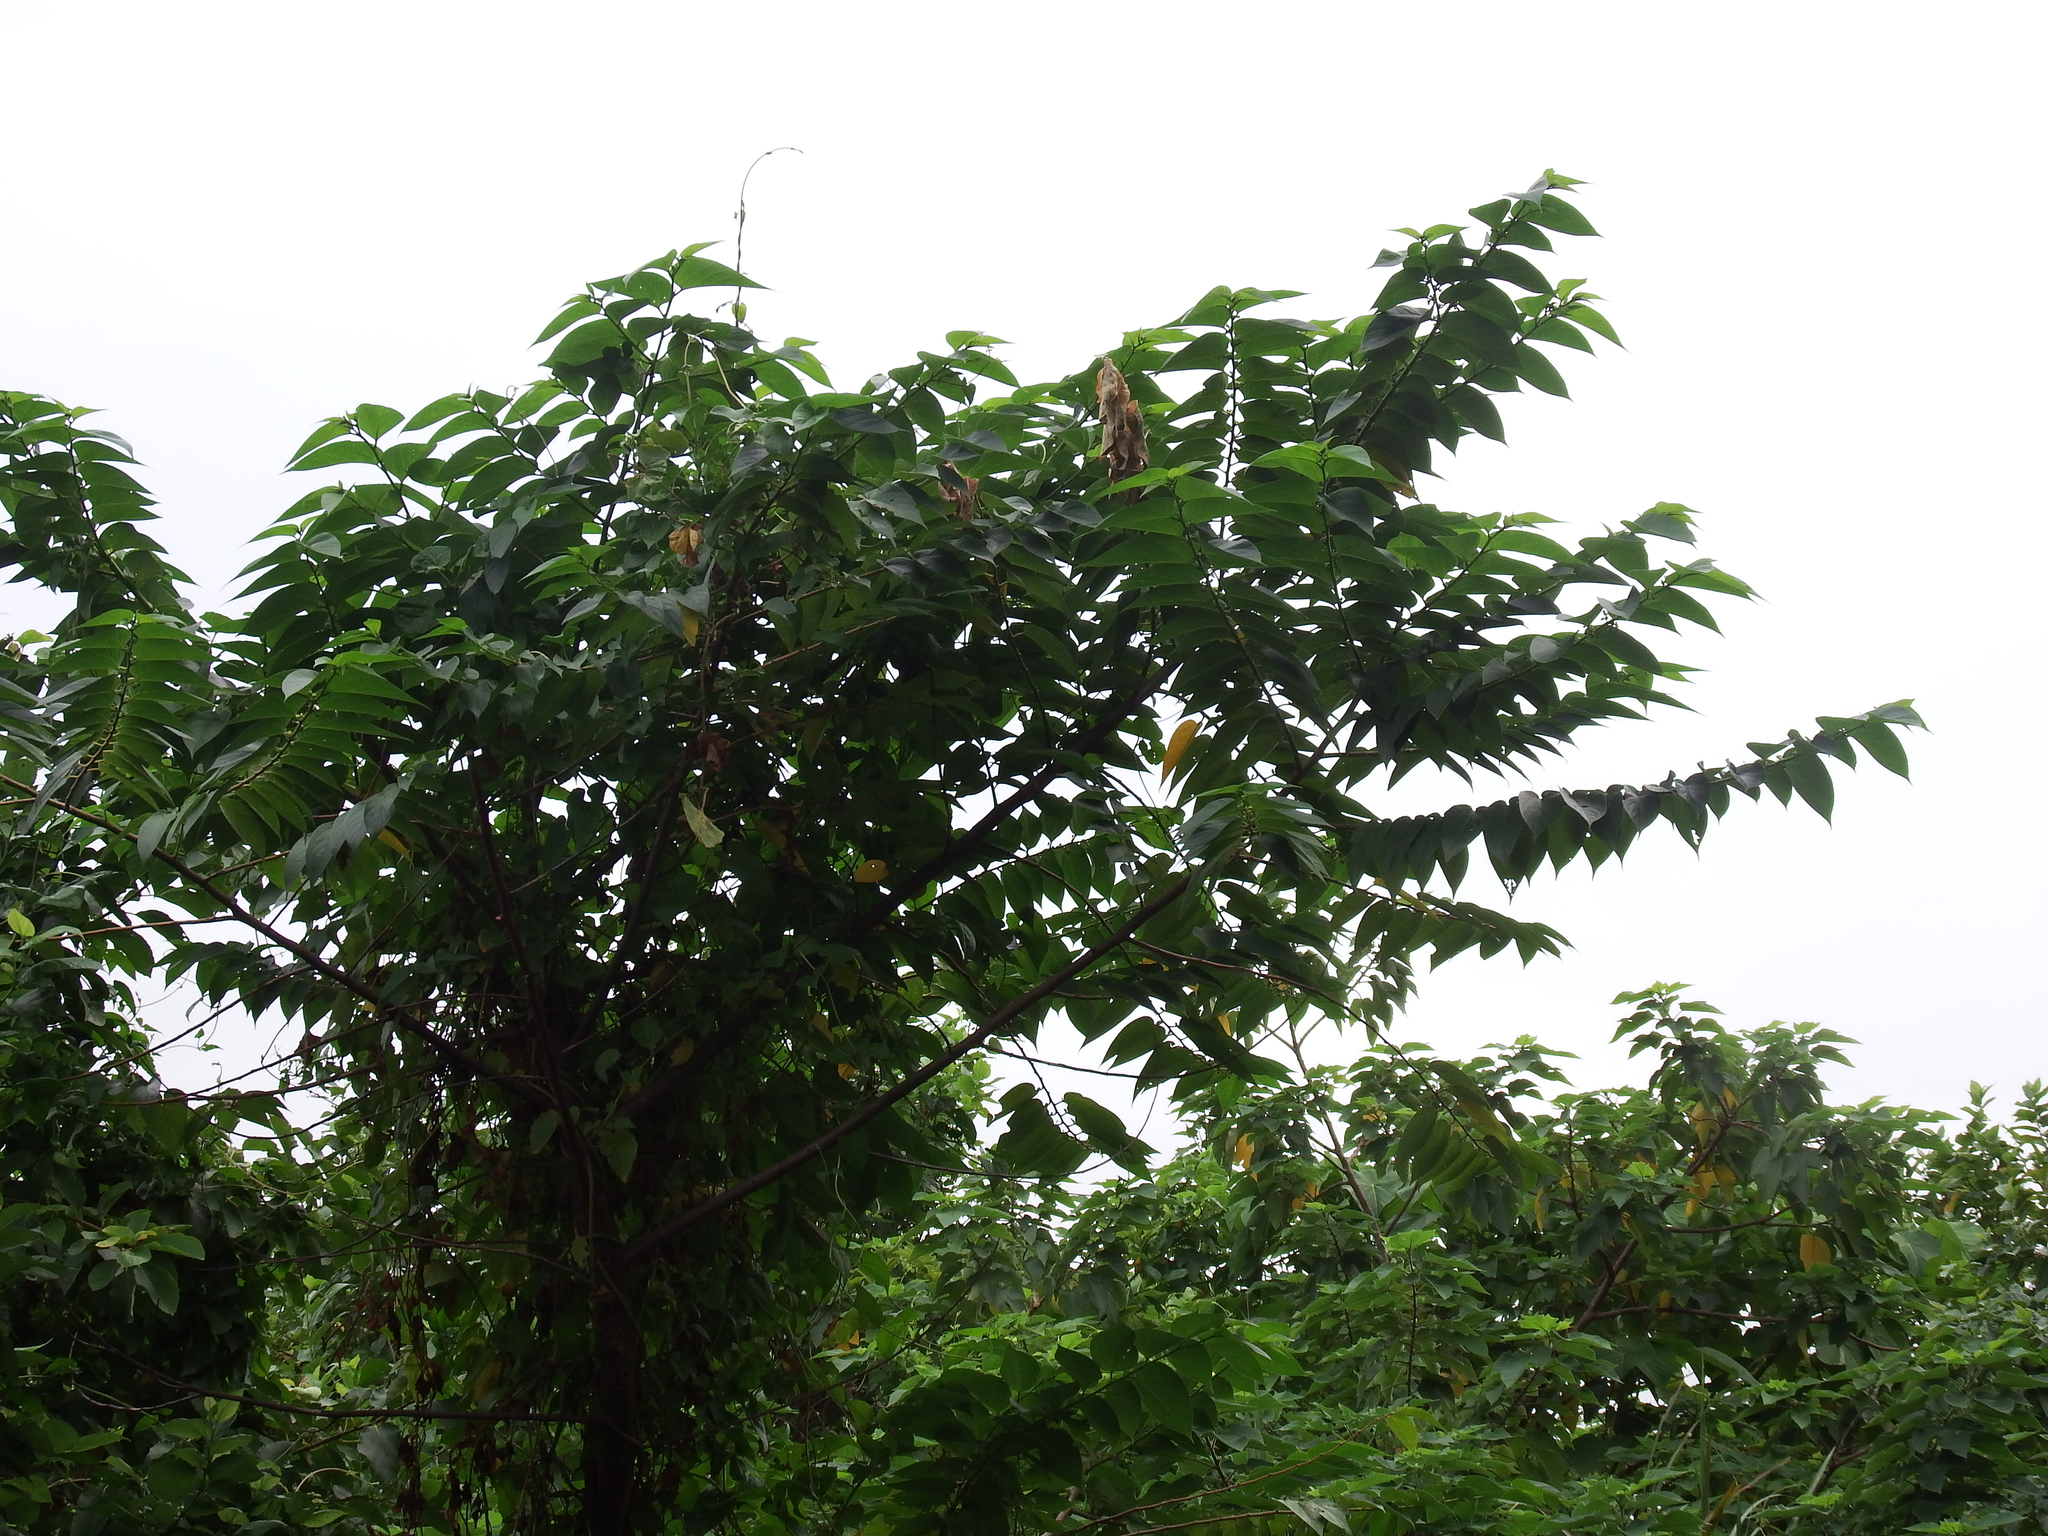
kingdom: Plantae
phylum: Tracheophyta
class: Magnoliopsida
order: Rosales
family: Cannabaceae
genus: Trema
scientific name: Trema orientale
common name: Indian charcoal tree
